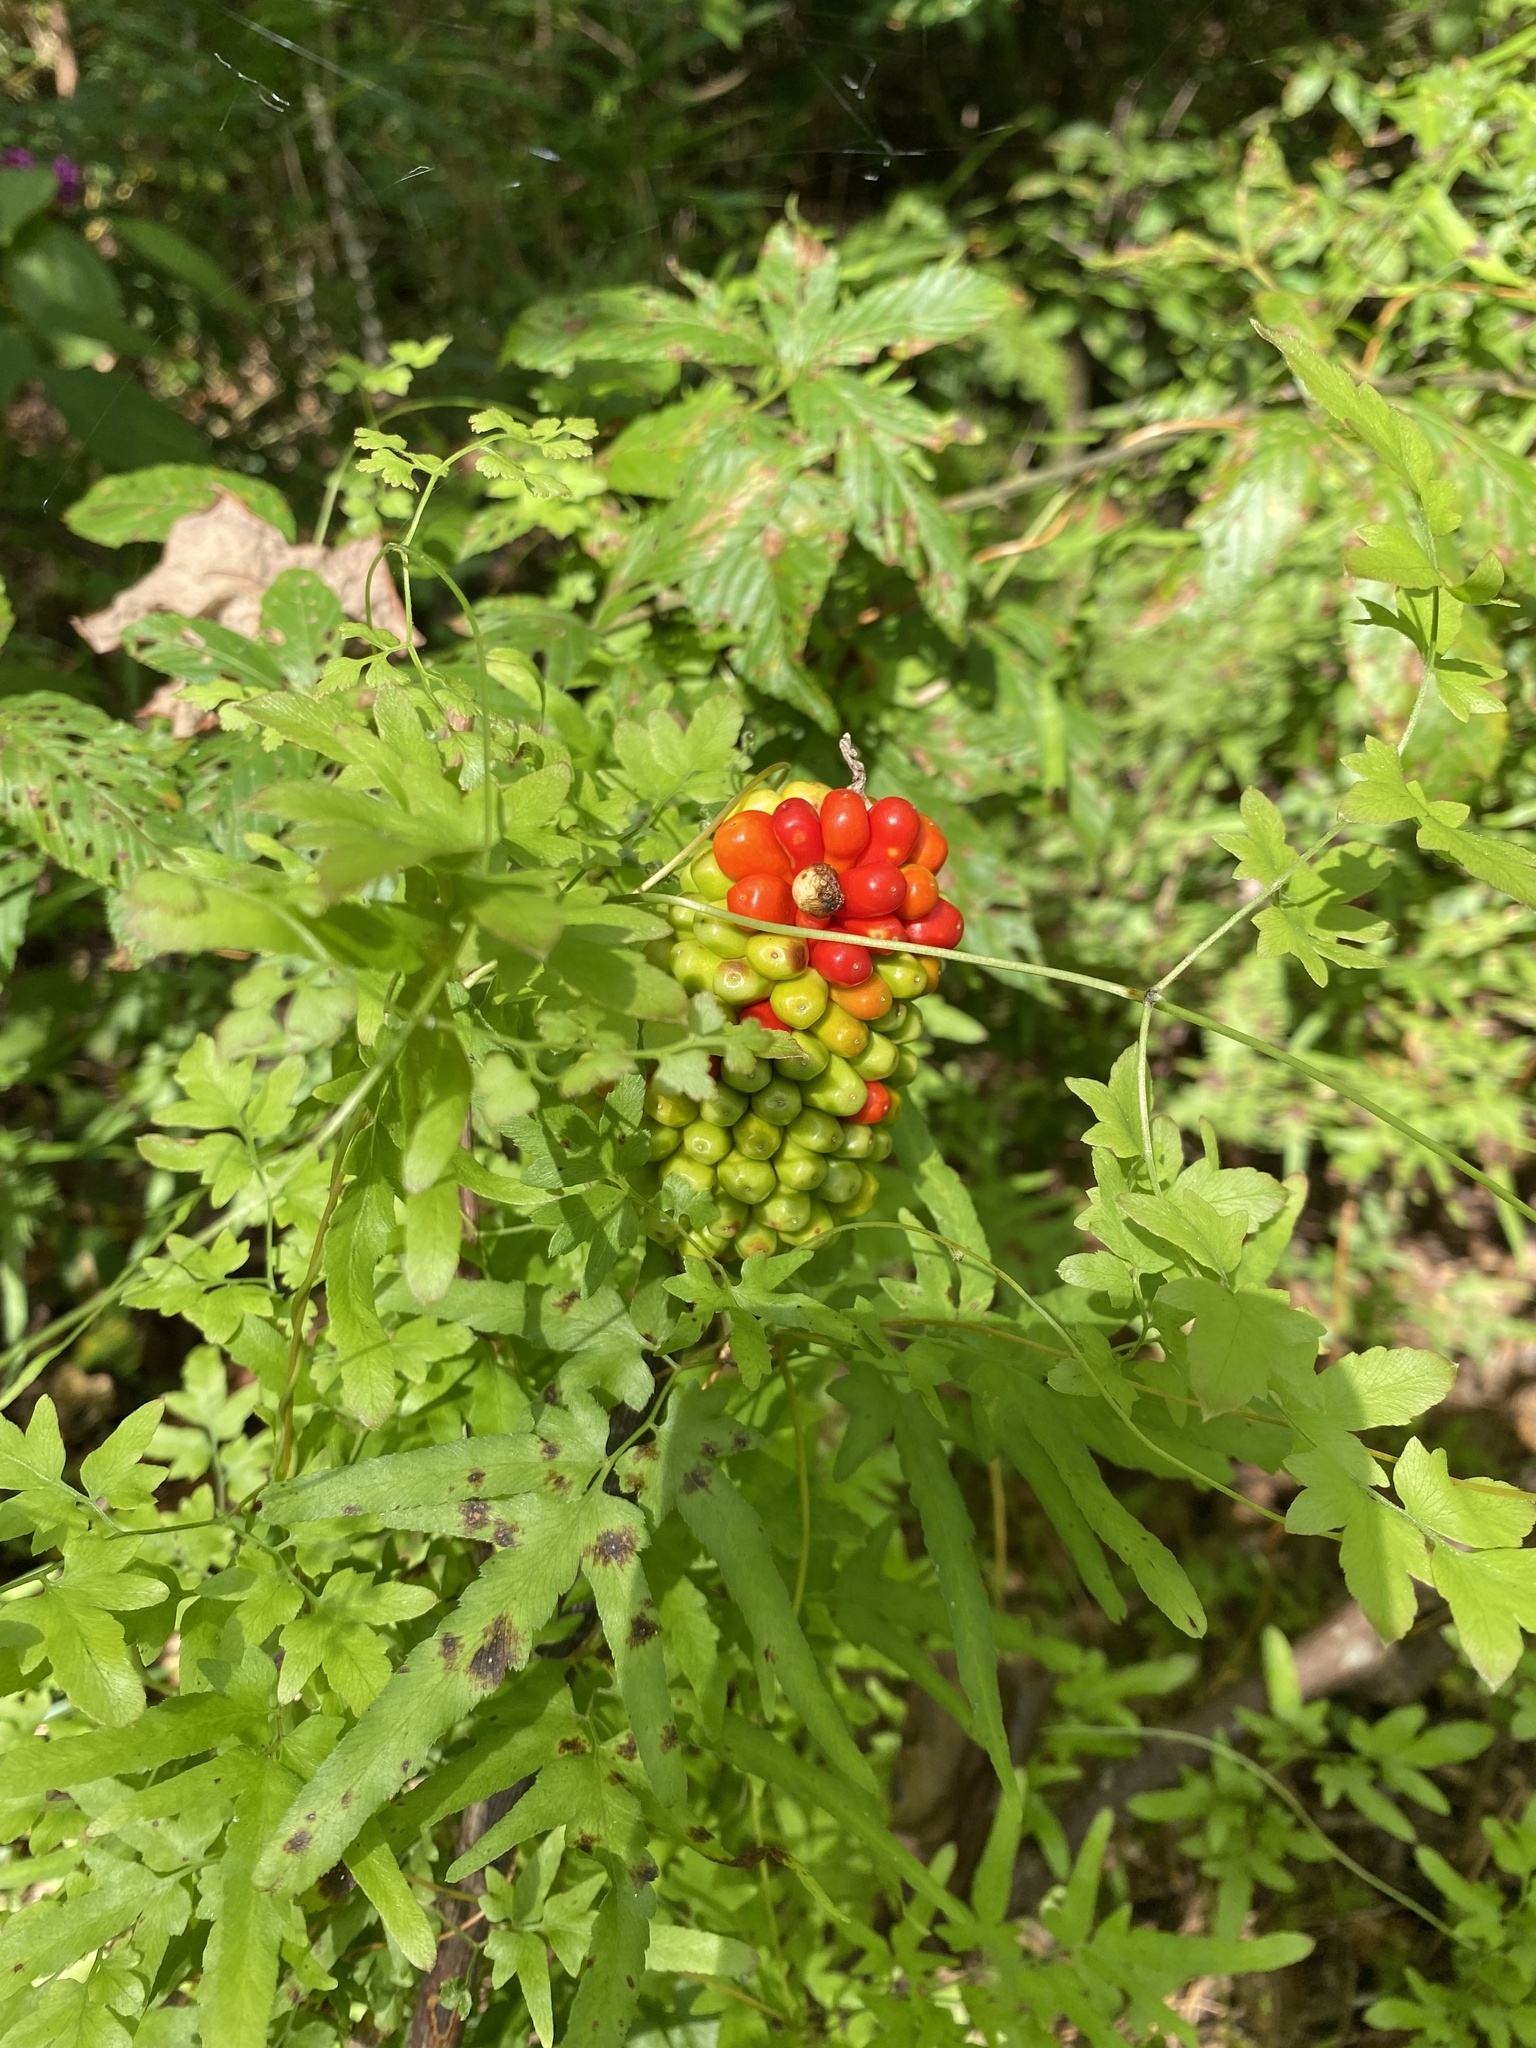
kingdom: Plantae
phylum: Tracheophyta
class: Liliopsida
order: Alismatales
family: Araceae
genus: Arisaema
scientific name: Arisaema
